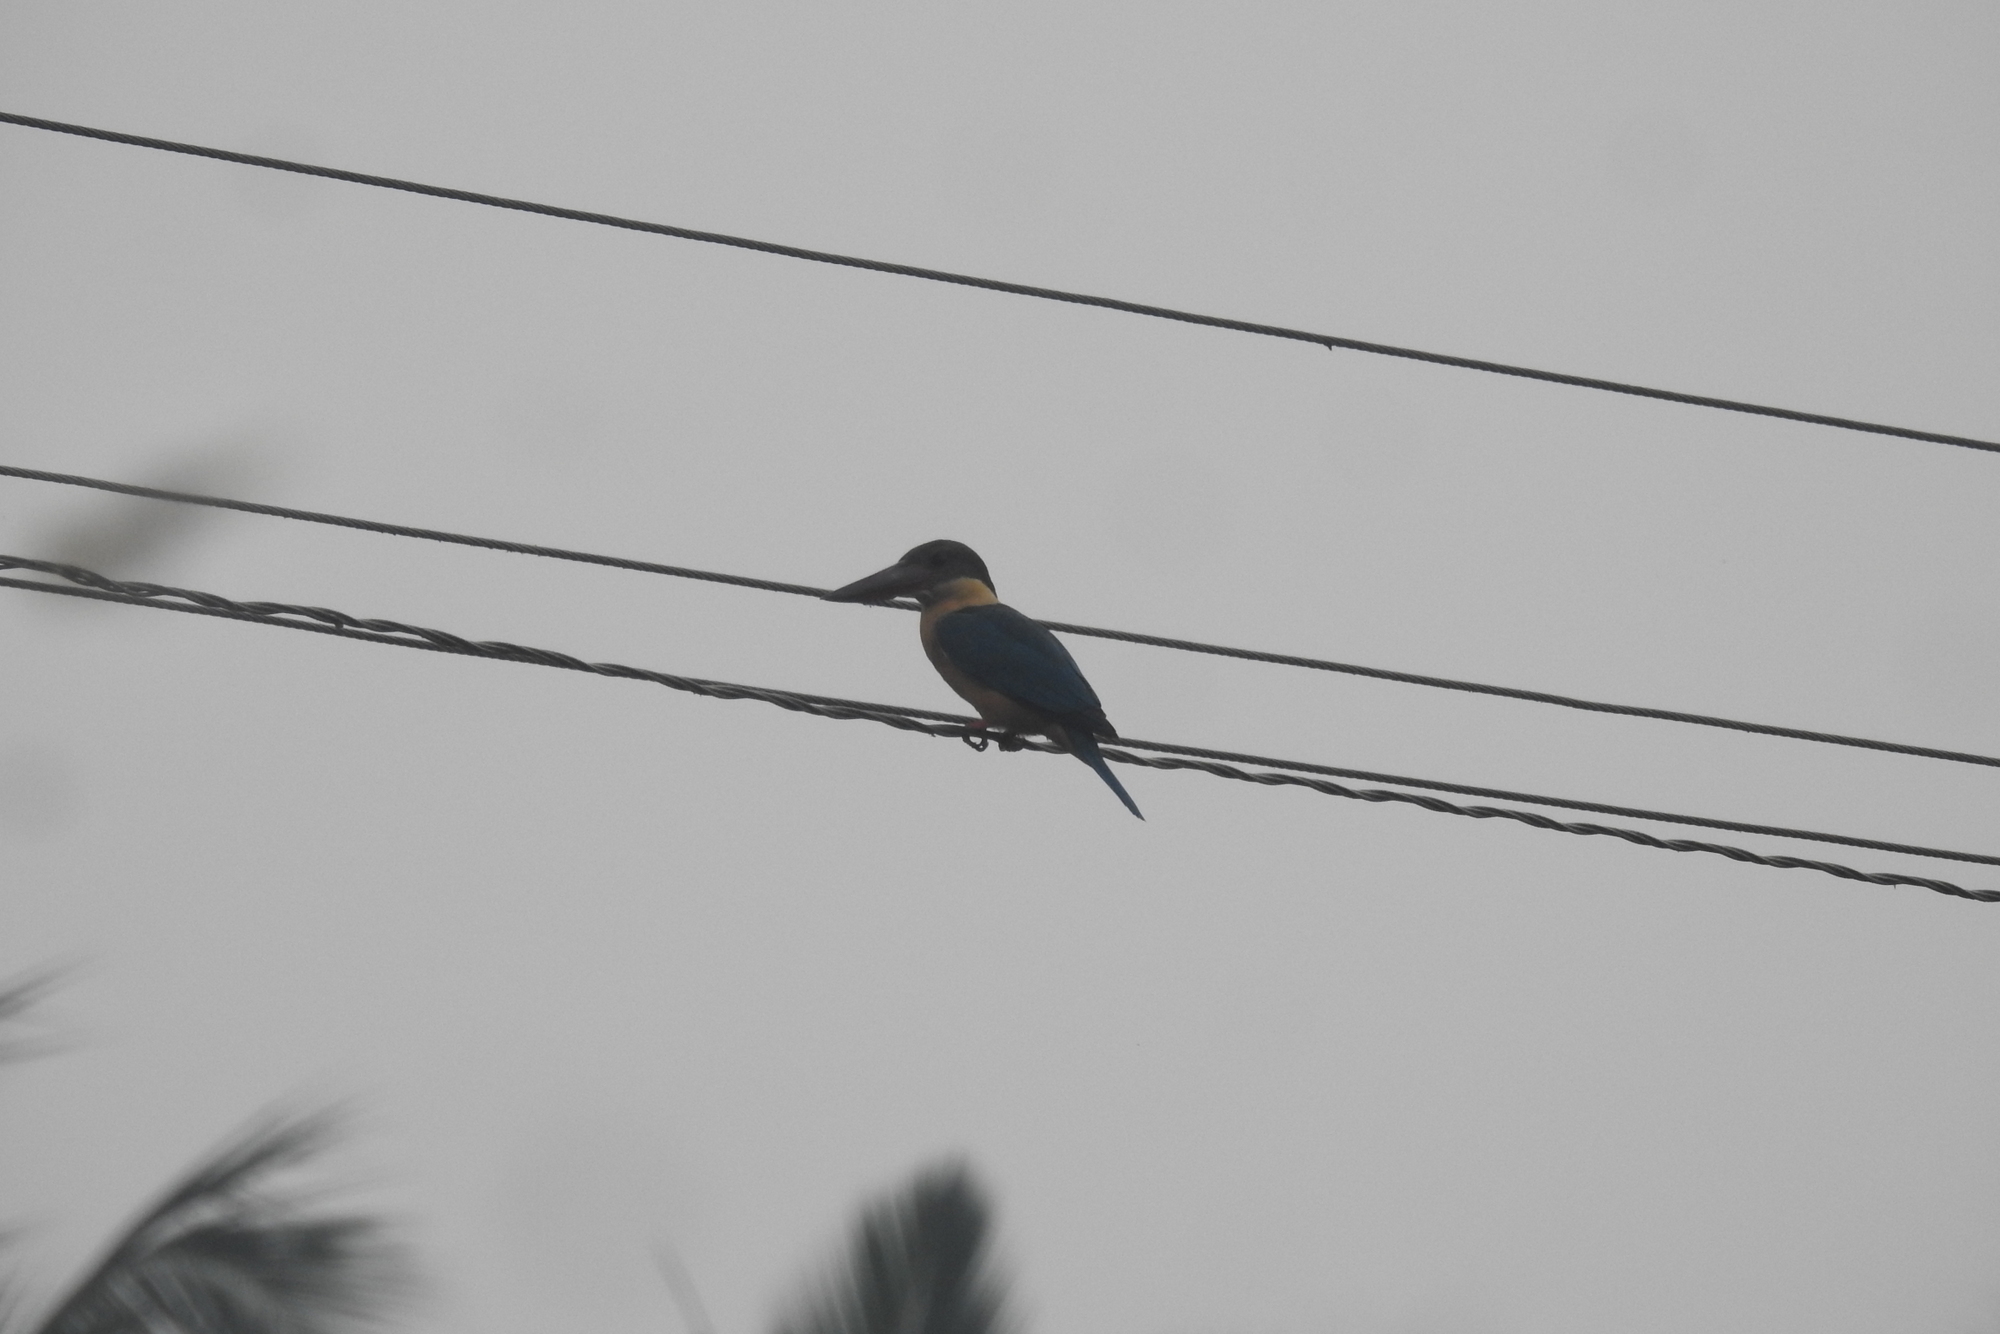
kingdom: Animalia
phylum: Chordata
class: Aves
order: Coraciiformes
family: Alcedinidae
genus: Pelargopsis
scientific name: Pelargopsis capensis
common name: Stork-billed kingfisher
